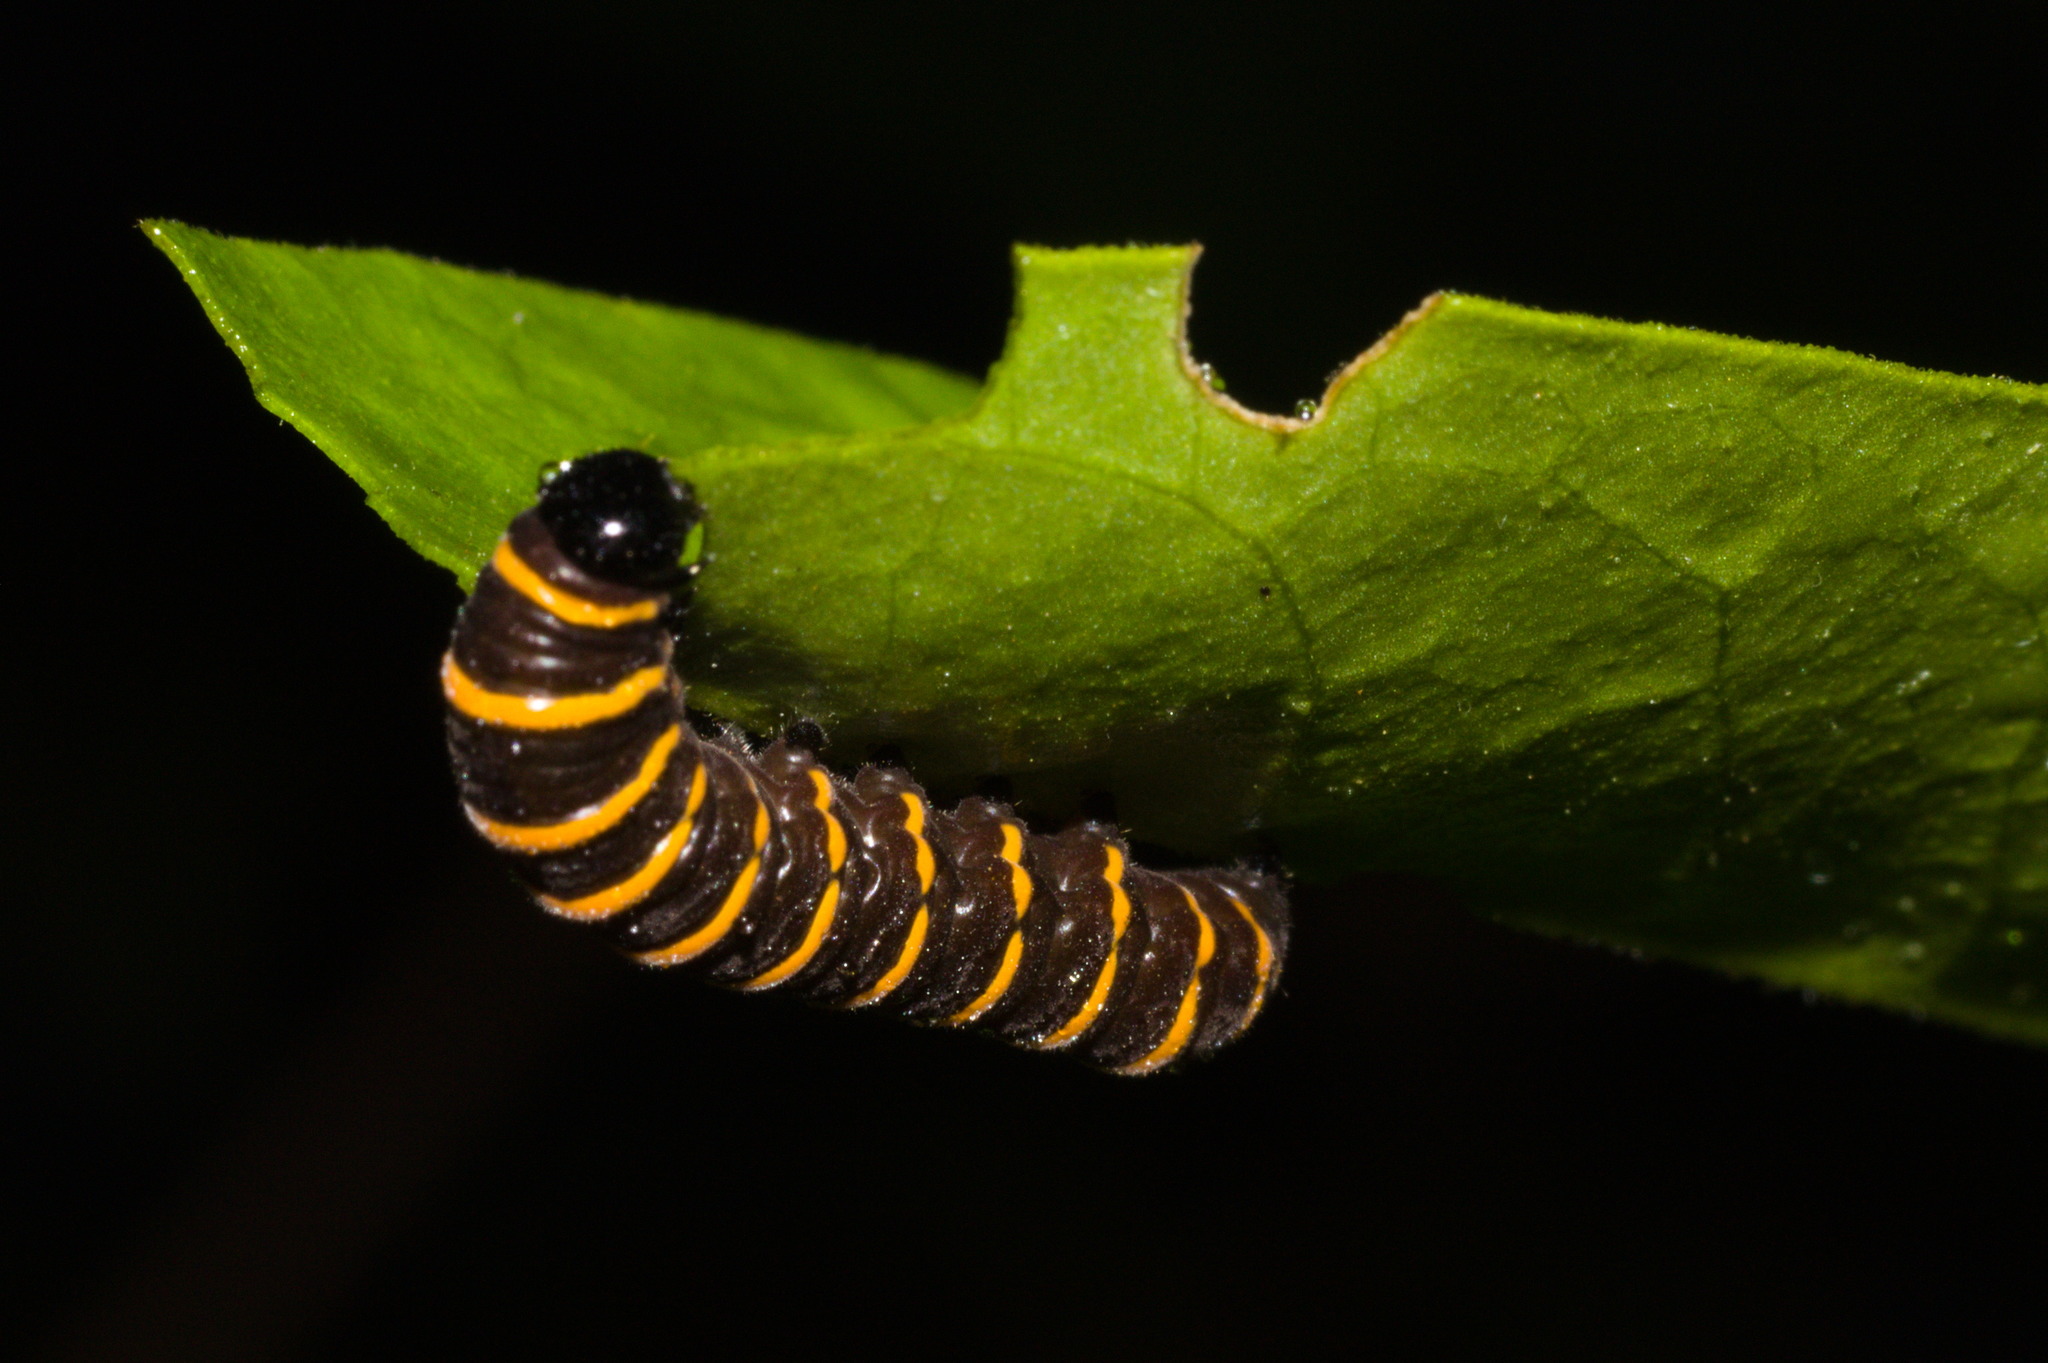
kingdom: Animalia
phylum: Arthropoda
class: Insecta
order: Lepidoptera
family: Nymphalidae
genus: Methona
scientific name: Methona themisto
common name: Themisto amberwing
